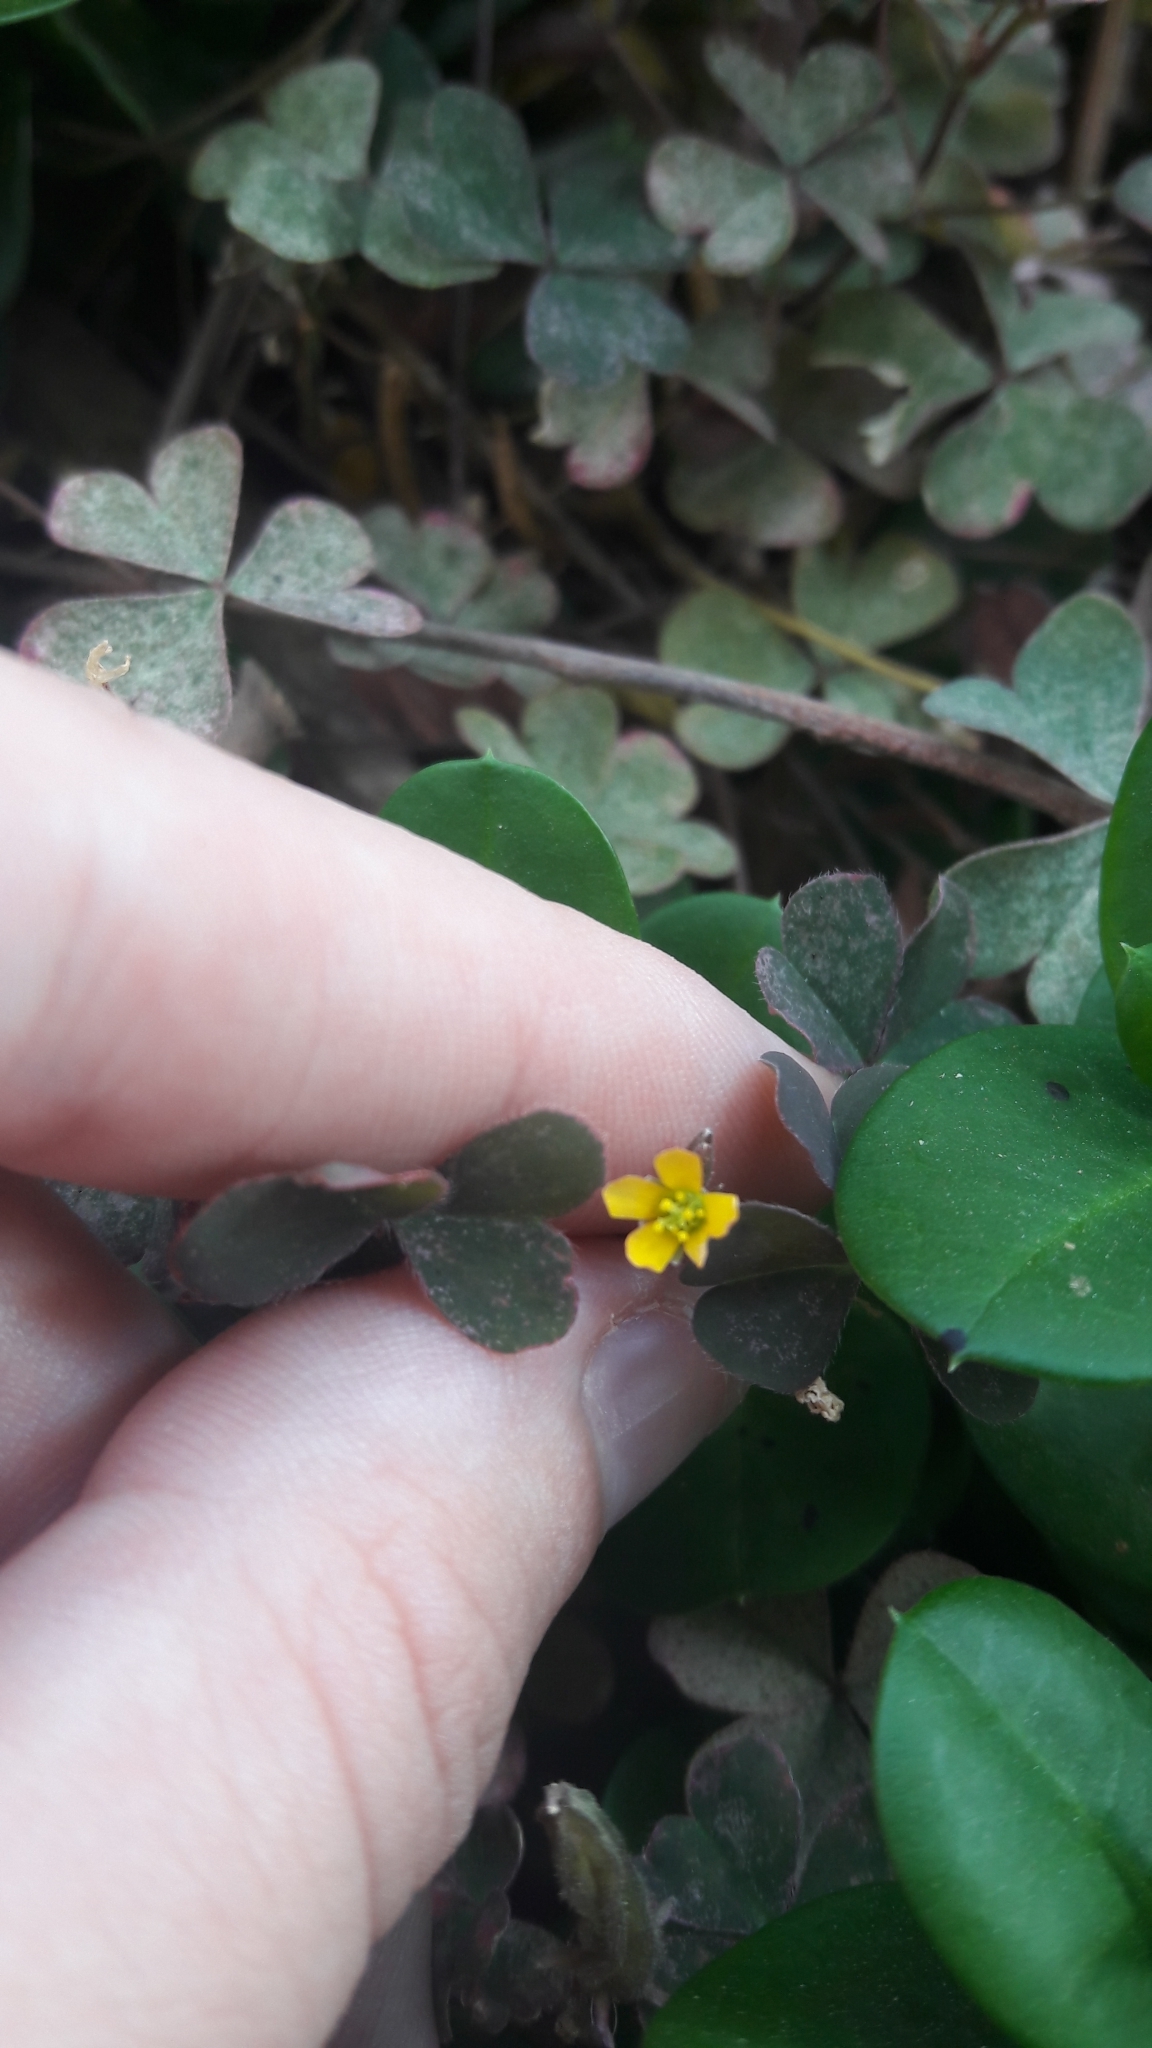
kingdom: Plantae
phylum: Tracheophyta
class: Magnoliopsida
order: Oxalidales
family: Oxalidaceae
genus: Oxalis
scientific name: Oxalis corniculata
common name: Procumbent yellow-sorrel
